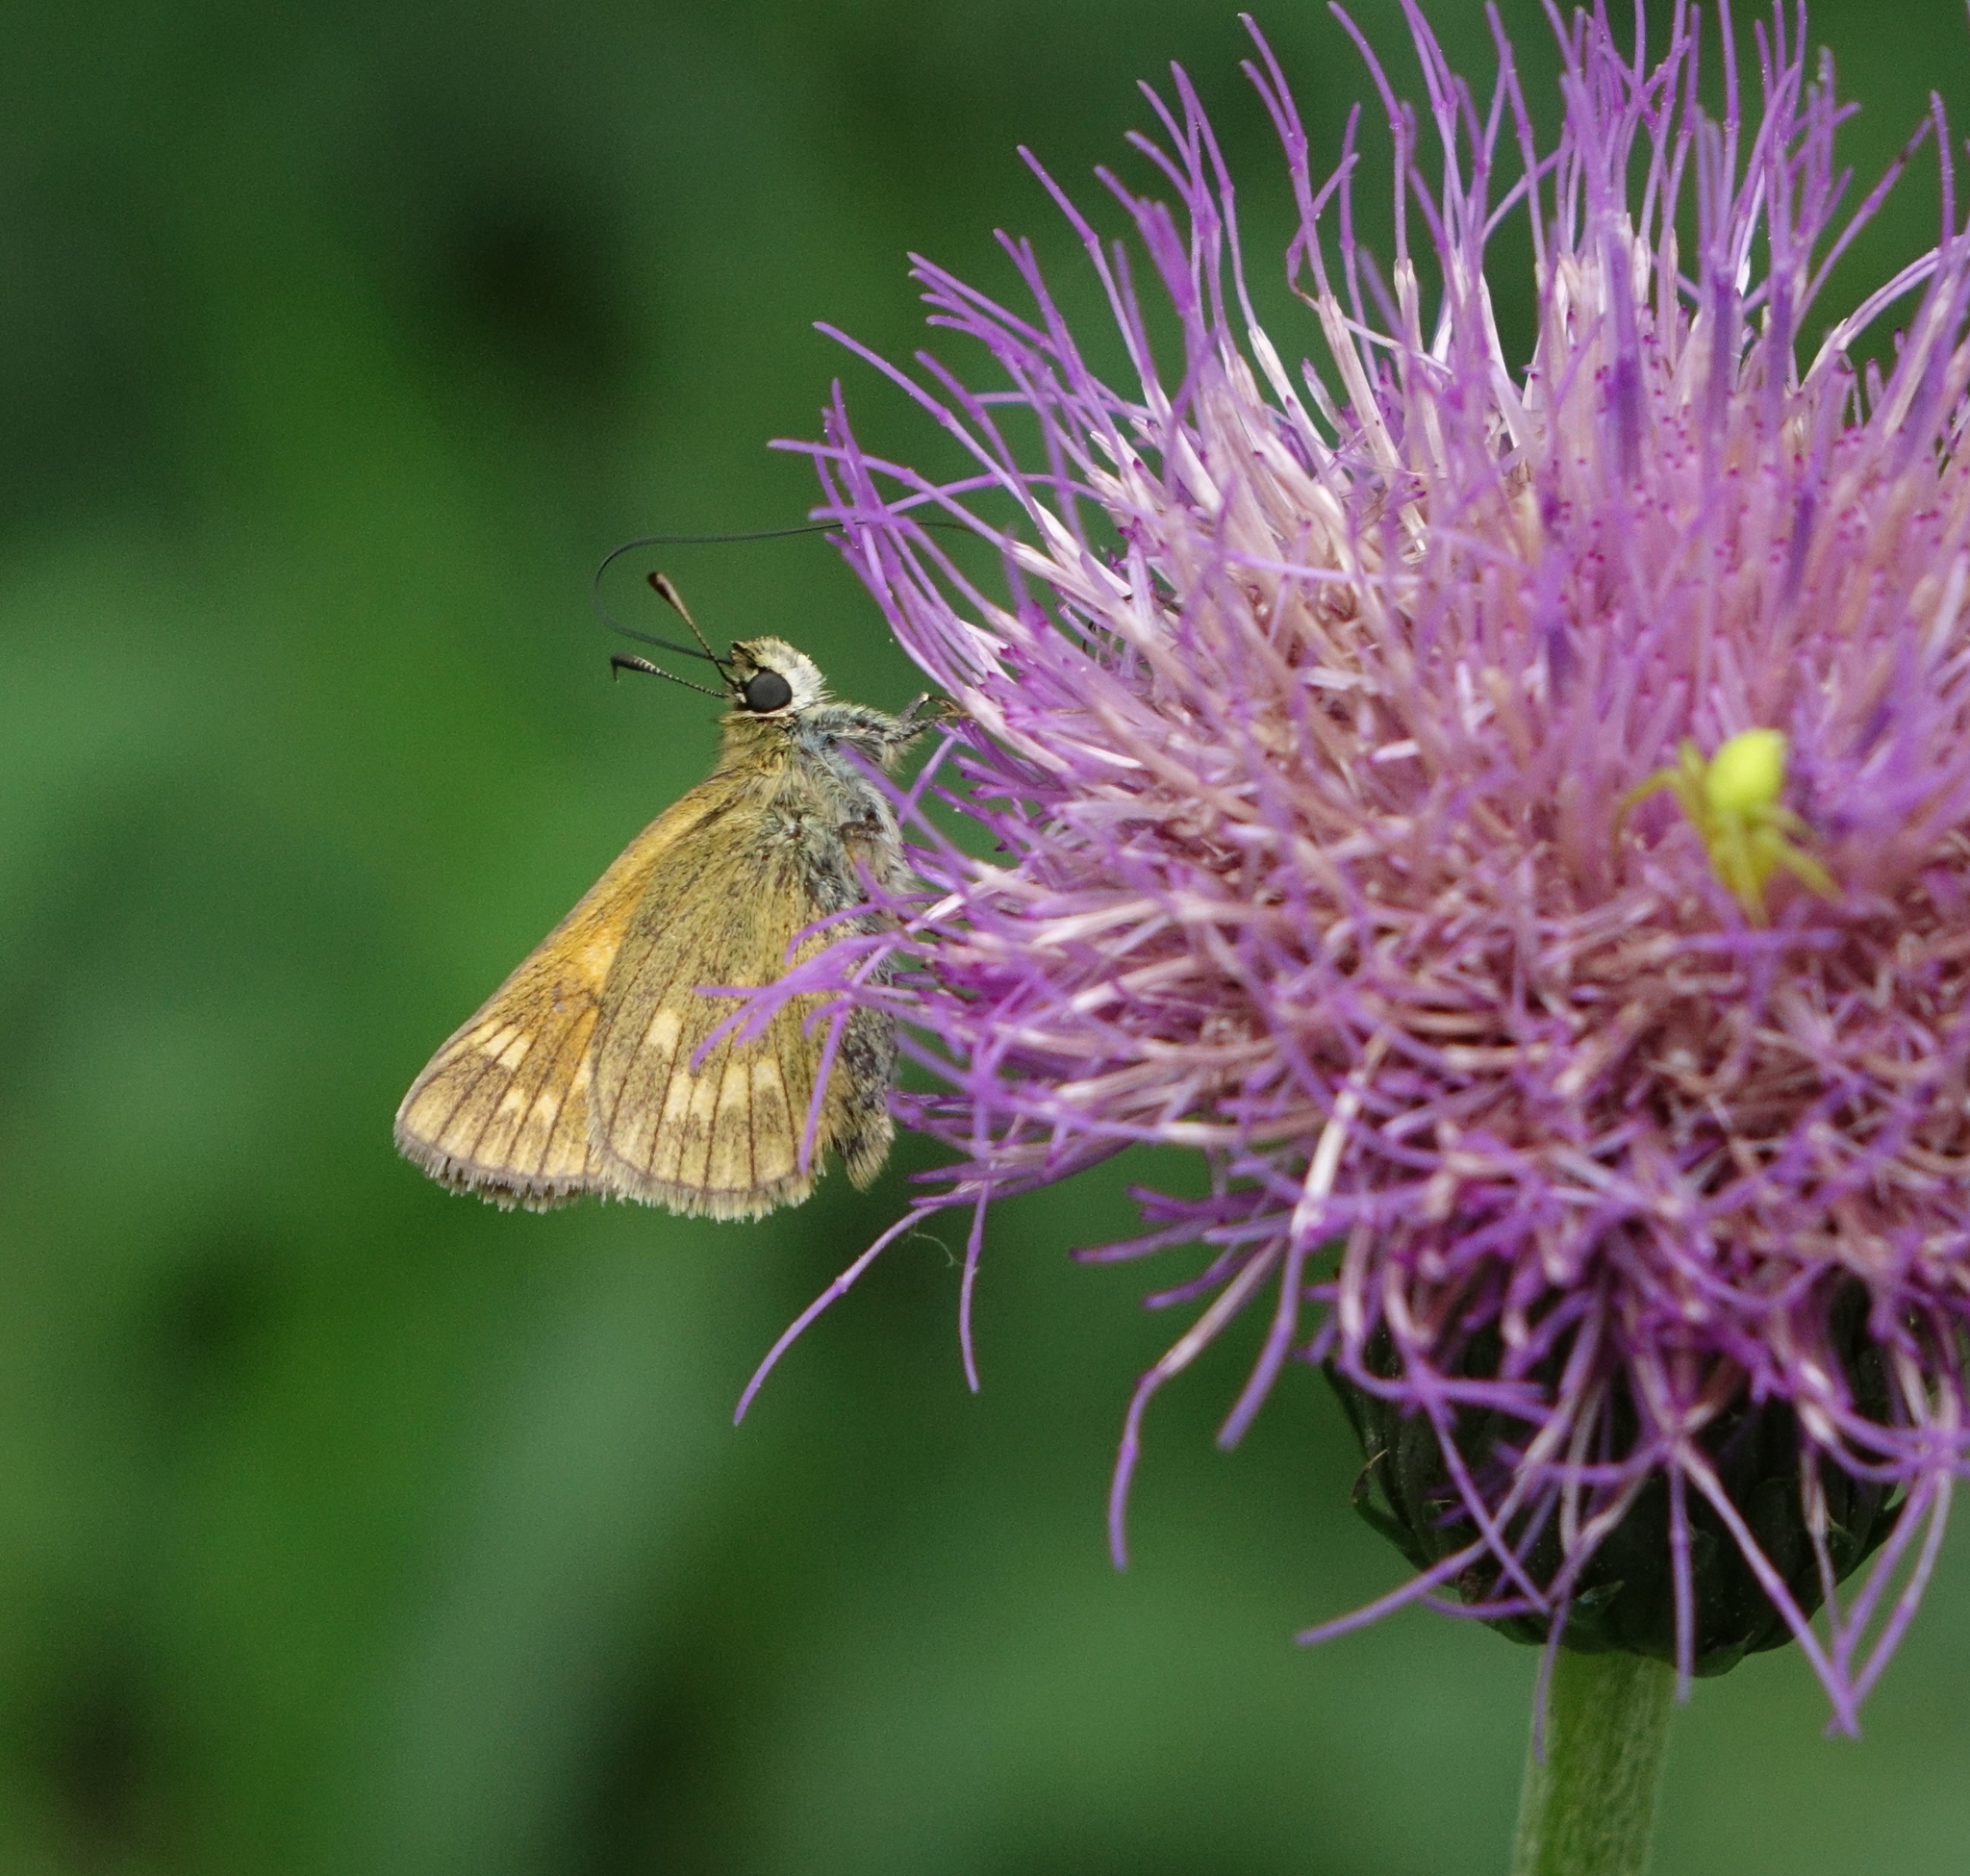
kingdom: Animalia
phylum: Arthropoda
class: Insecta
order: Lepidoptera
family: Hesperiidae
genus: Ochlodes
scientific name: Ochlodes venata
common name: Large skipper
